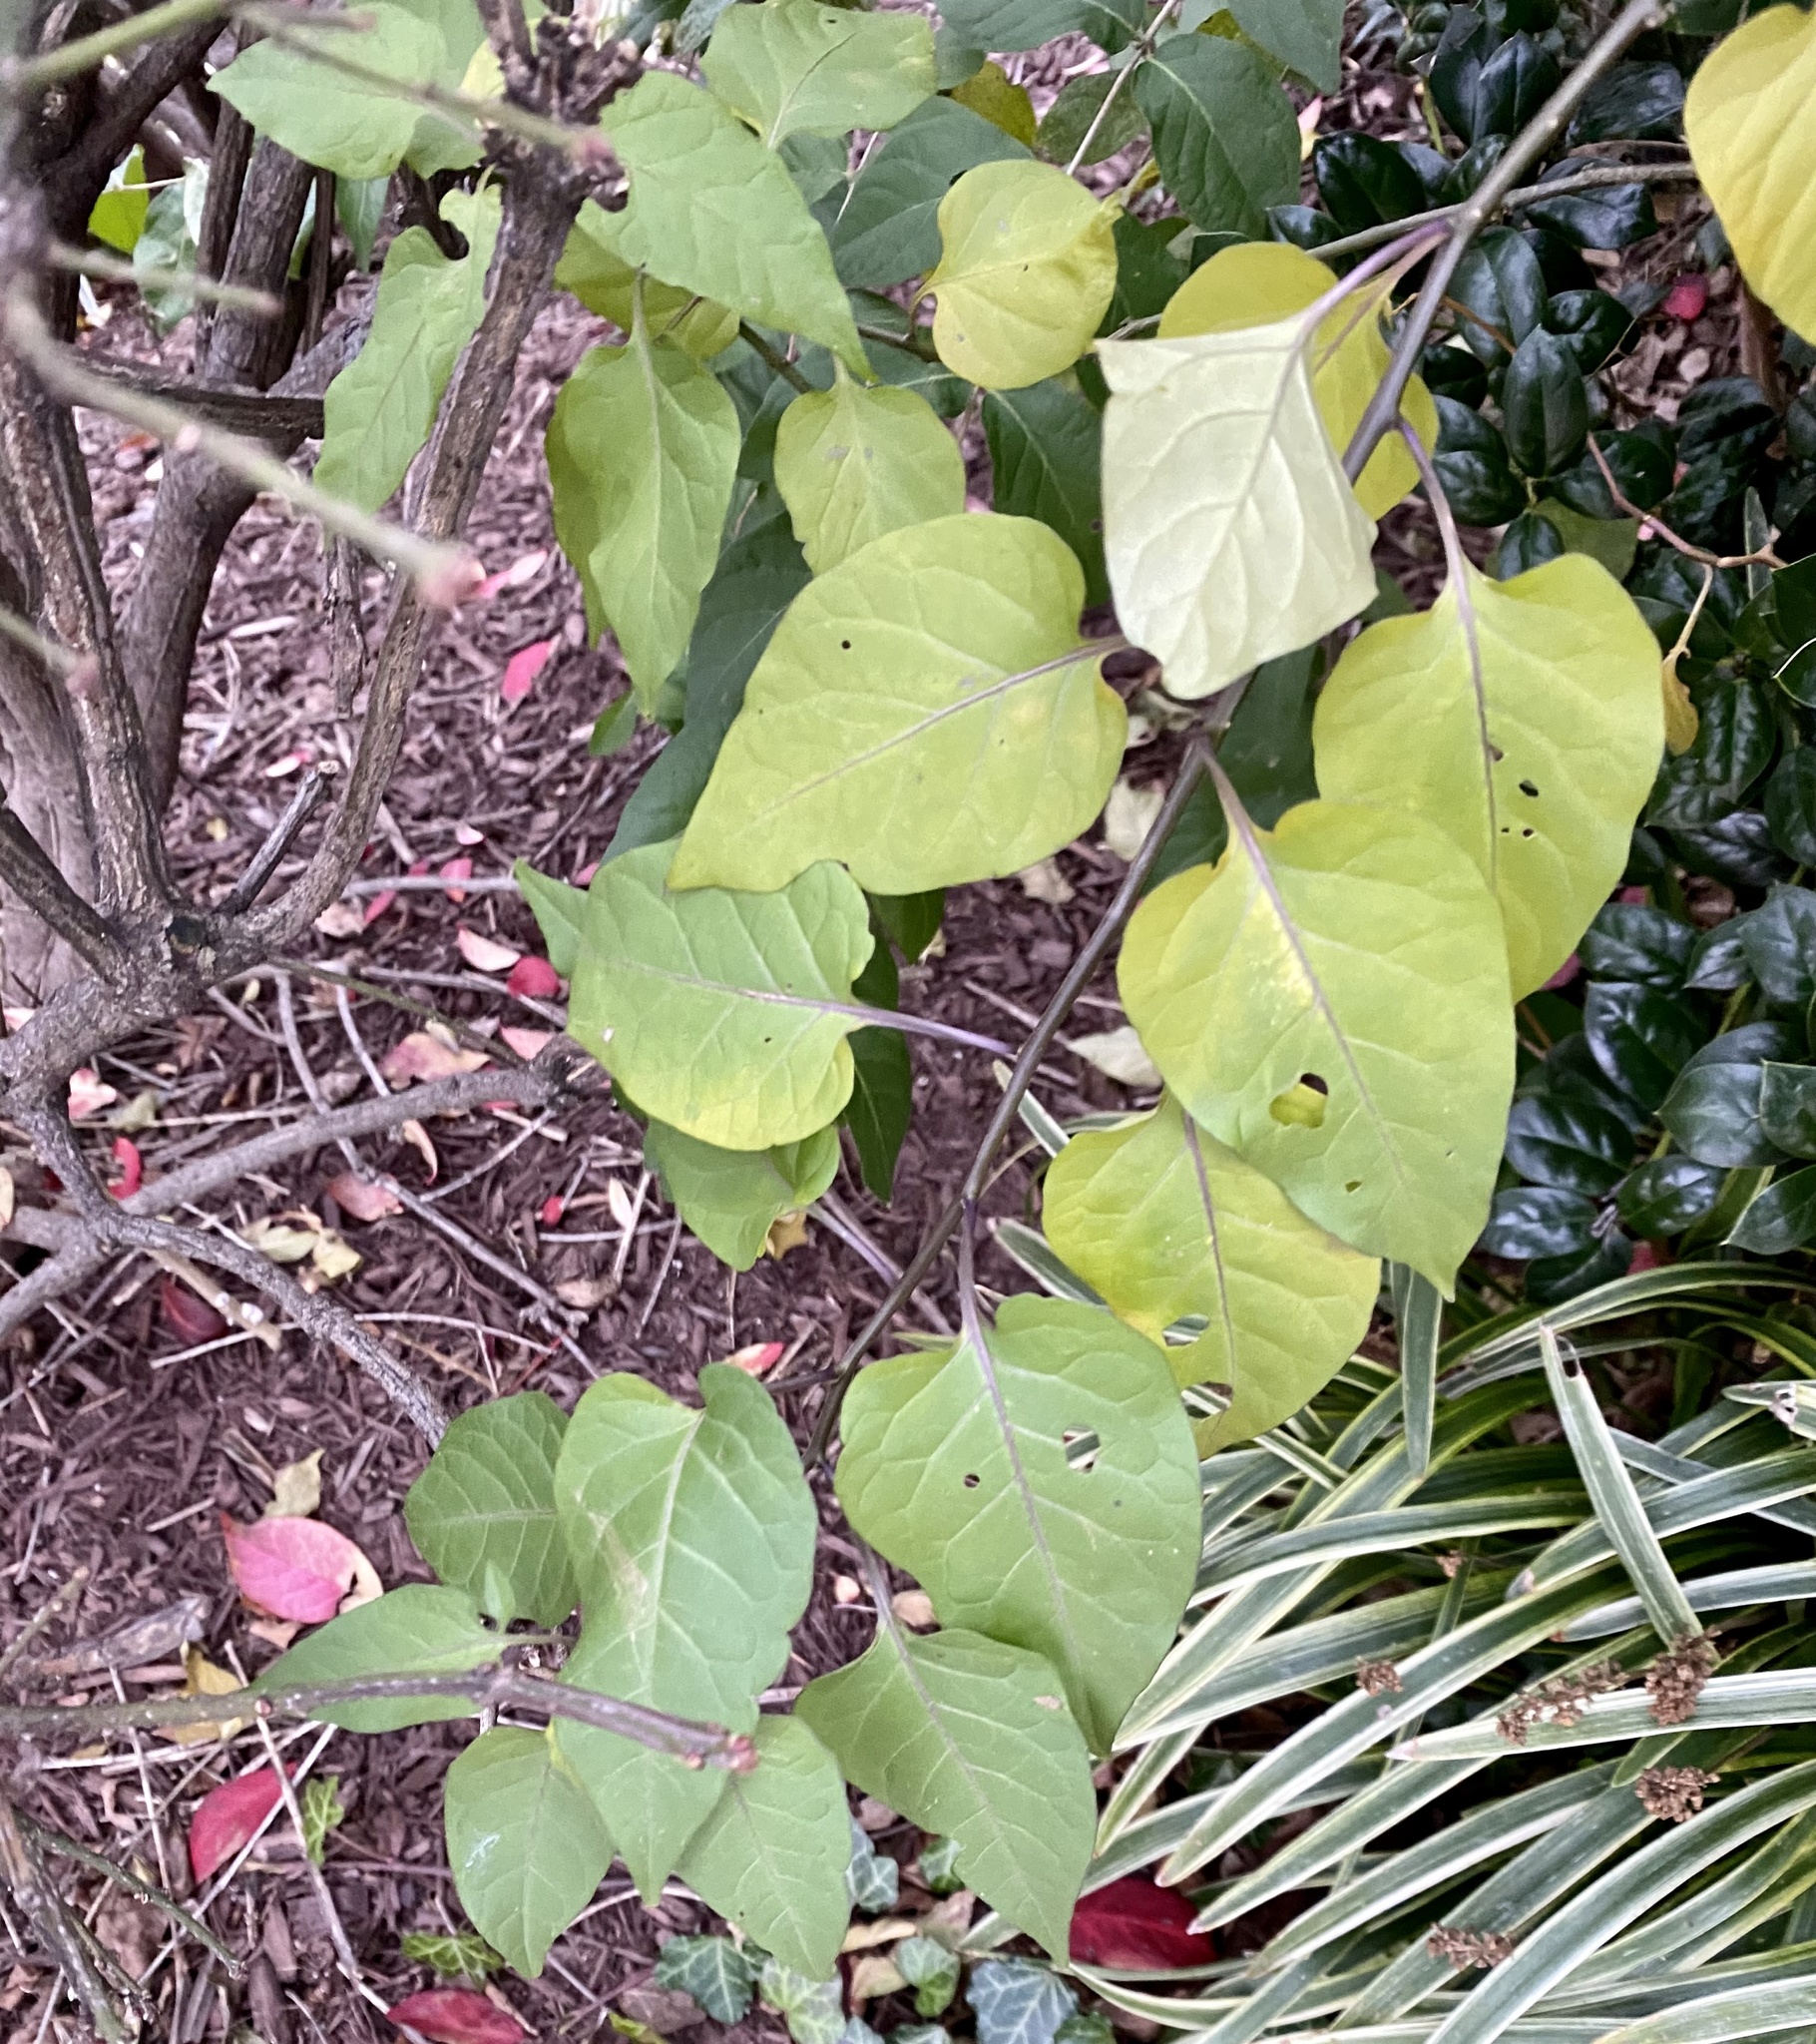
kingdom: Plantae
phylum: Tracheophyta
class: Magnoliopsida
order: Solanales
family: Solanaceae
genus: Solanum
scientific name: Solanum dulcamara
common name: Climbing nightshade
